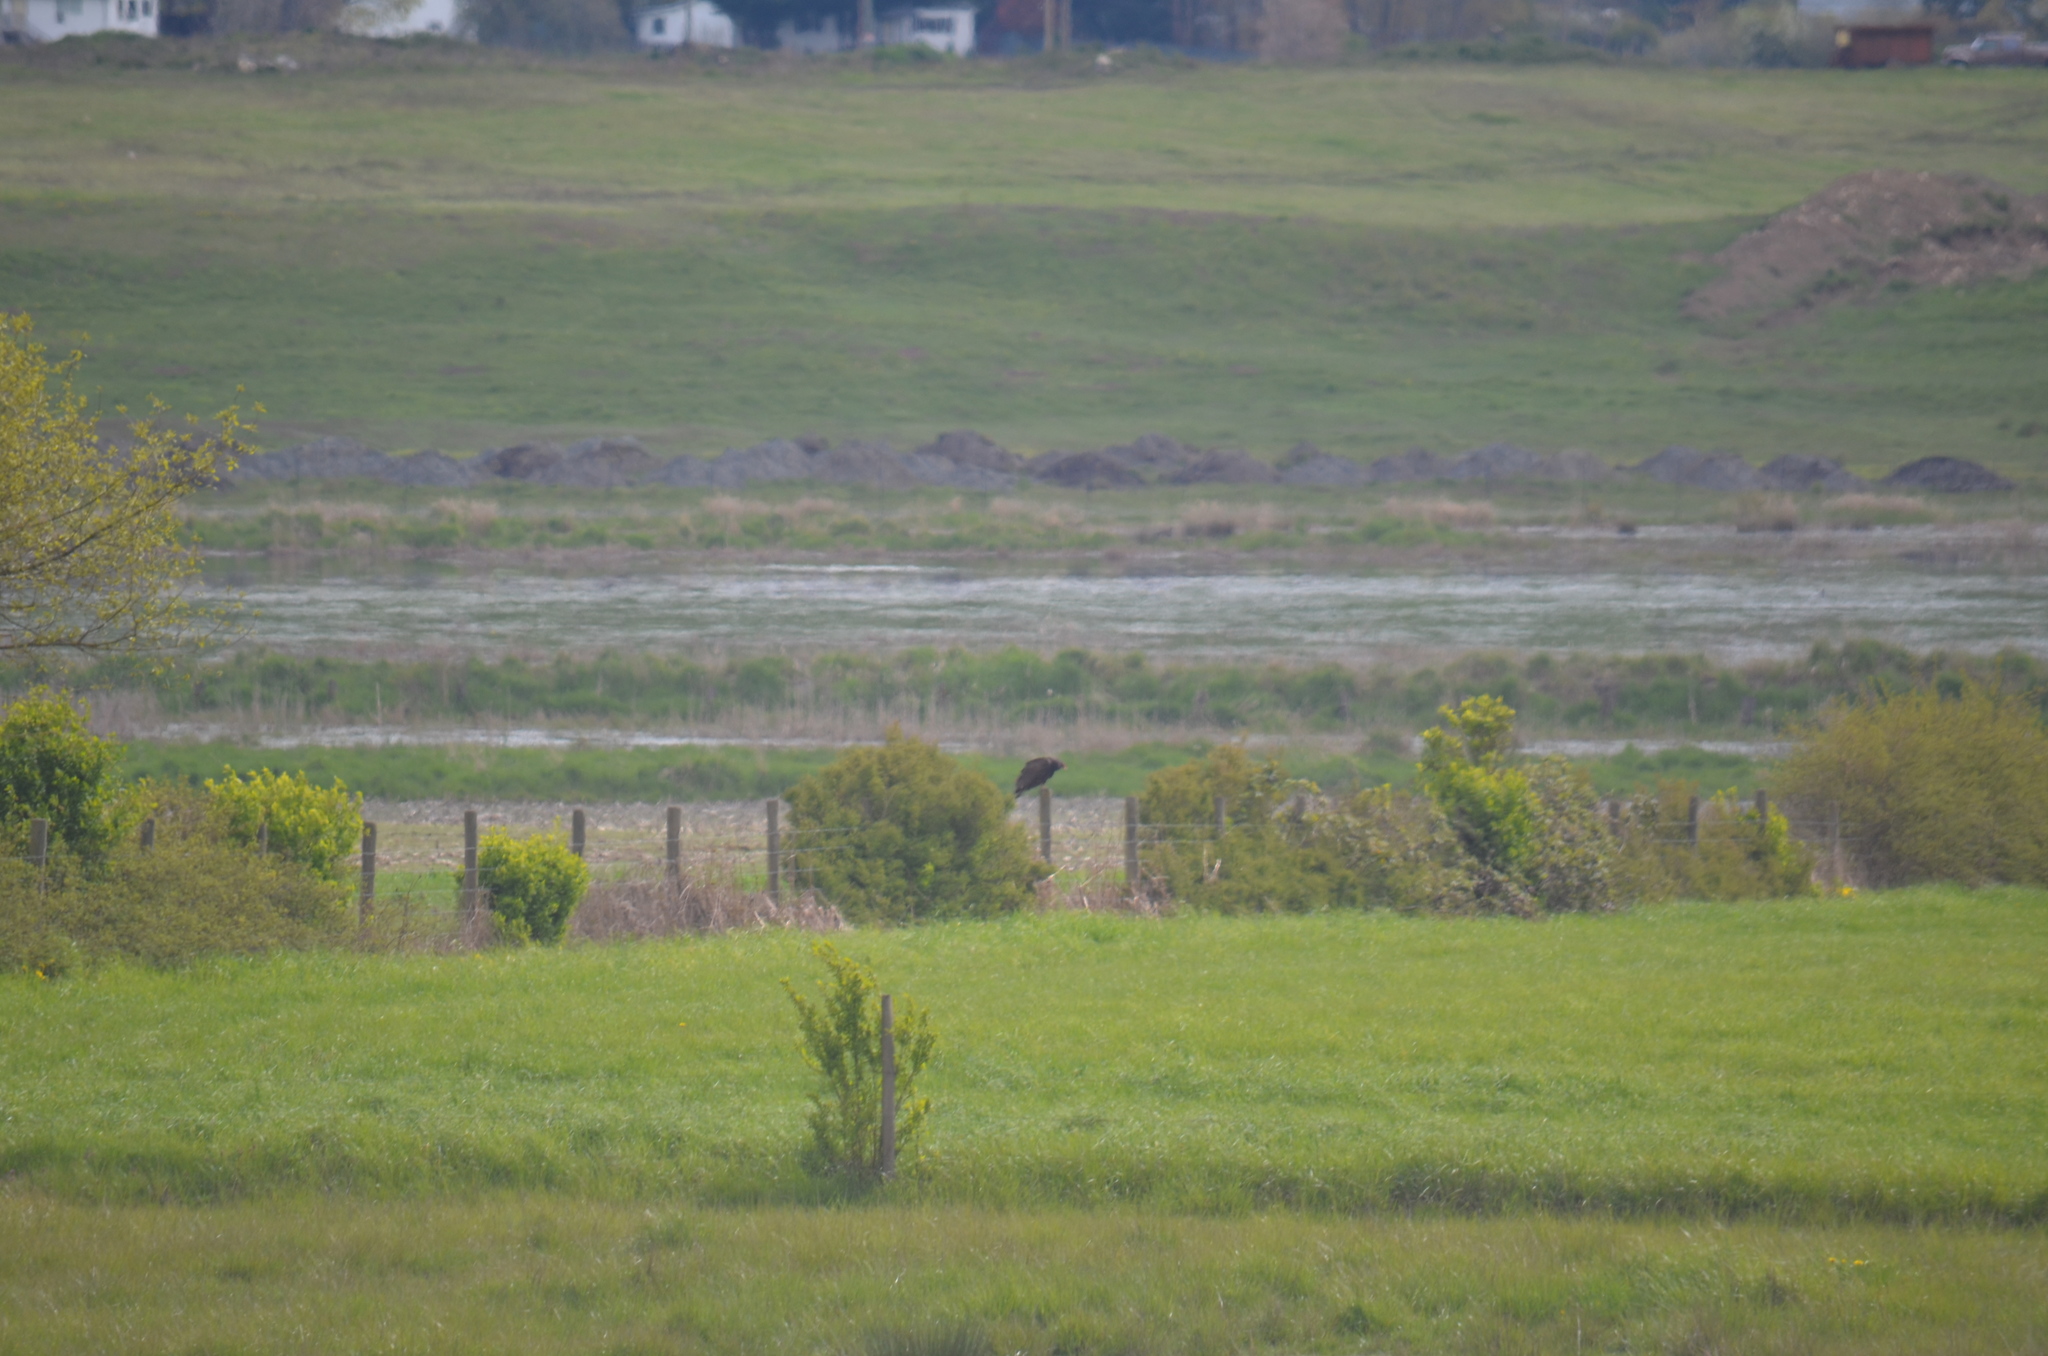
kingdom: Animalia
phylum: Chordata
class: Aves
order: Accipitriformes
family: Cathartidae
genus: Cathartes
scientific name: Cathartes aura
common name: Turkey vulture
